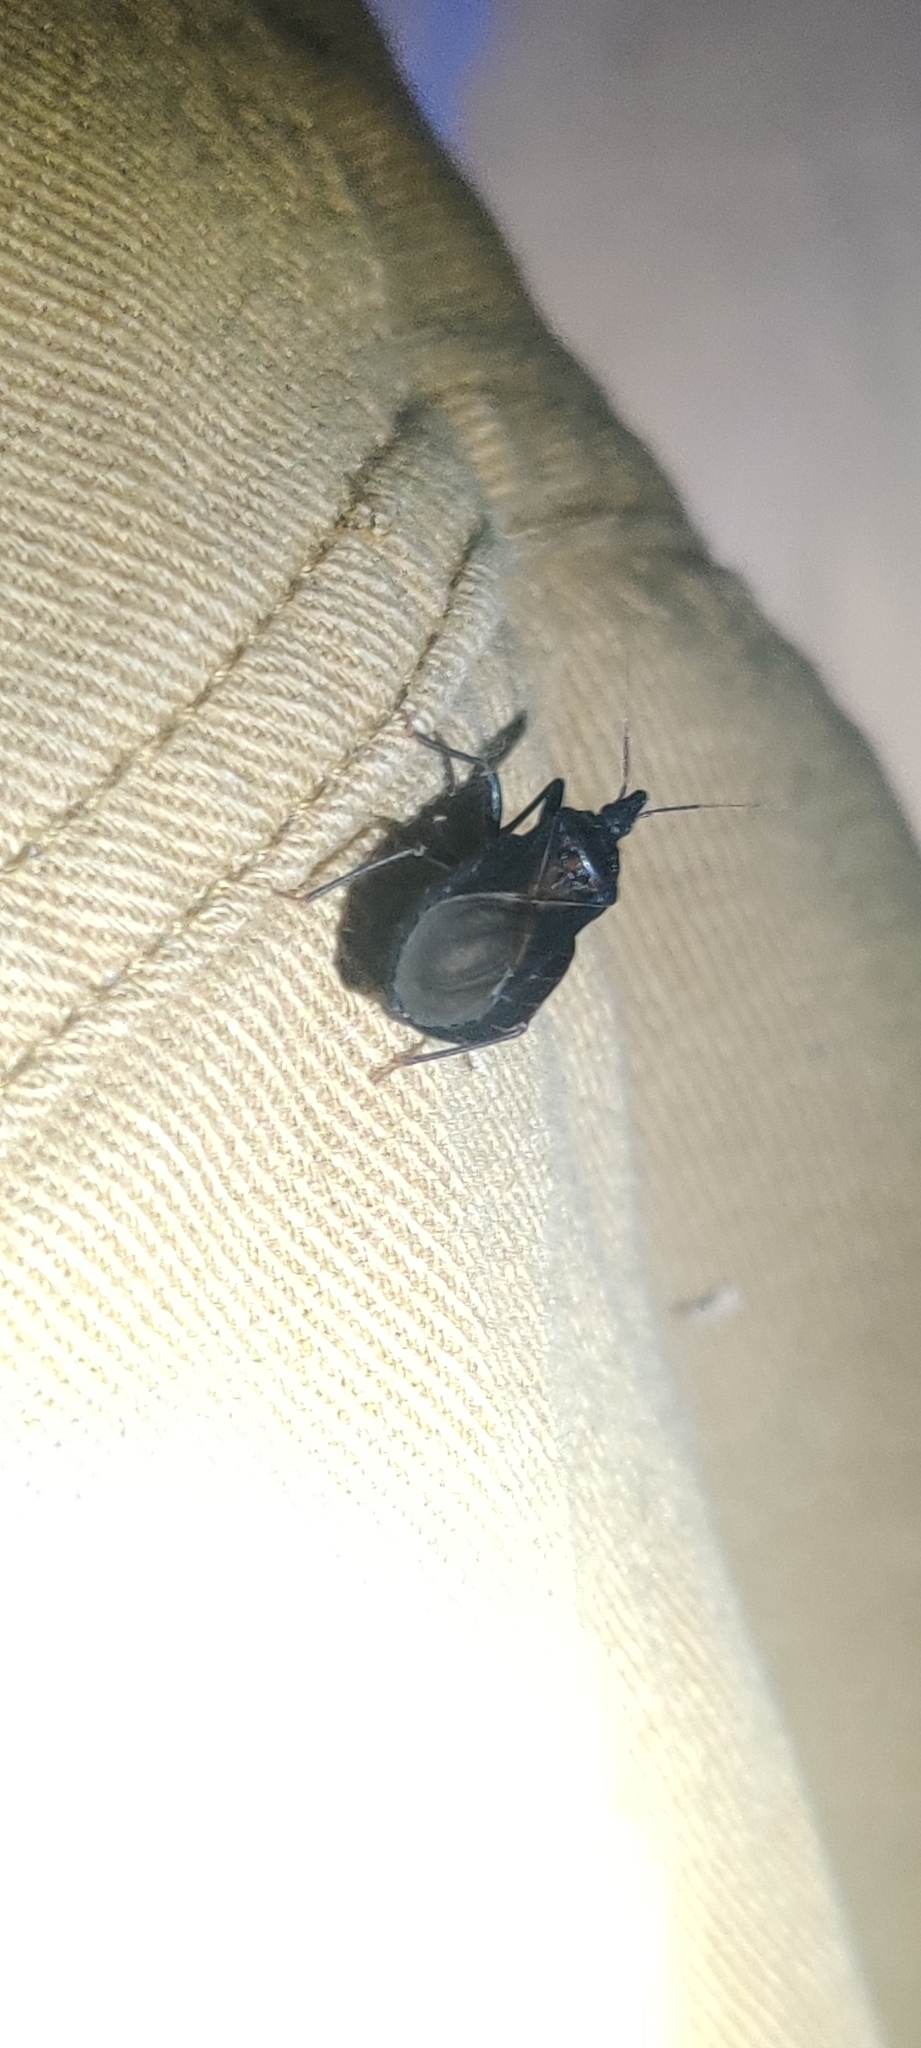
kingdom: Animalia
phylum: Arthropoda
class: Insecta
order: Hemiptera
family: Reduviidae
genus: Triatoma
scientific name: Triatoma protracta
